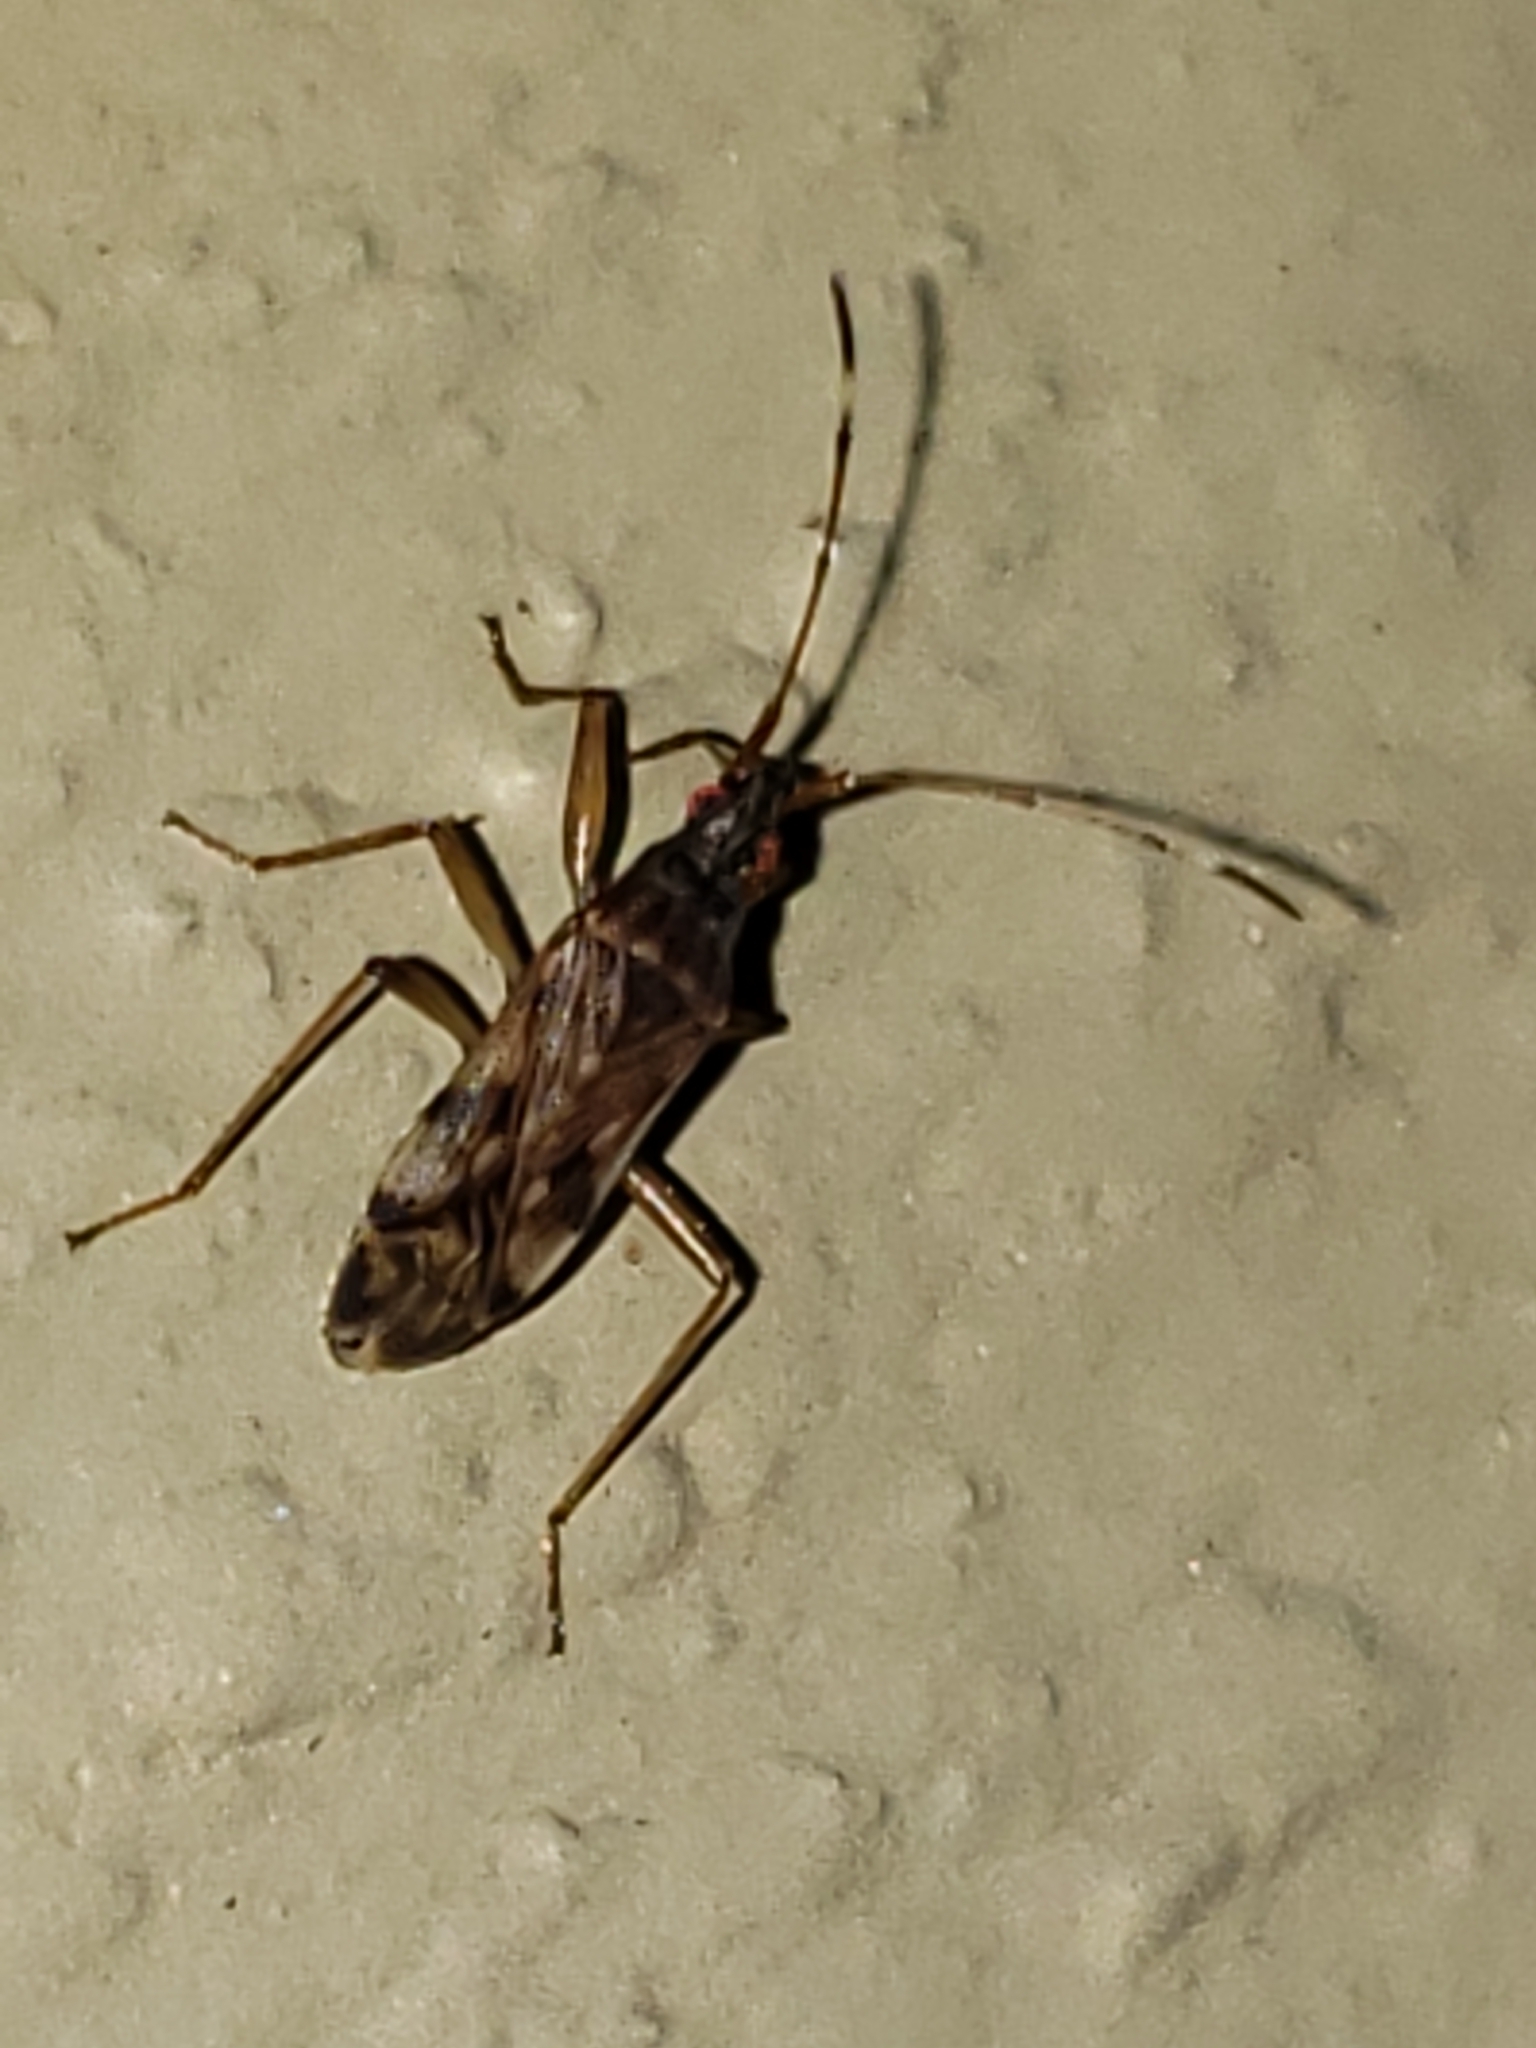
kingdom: Animalia
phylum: Arthropoda
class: Insecta
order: Hemiptera
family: Rhyparochromidae
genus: Ozophora
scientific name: Ozophora picturata
